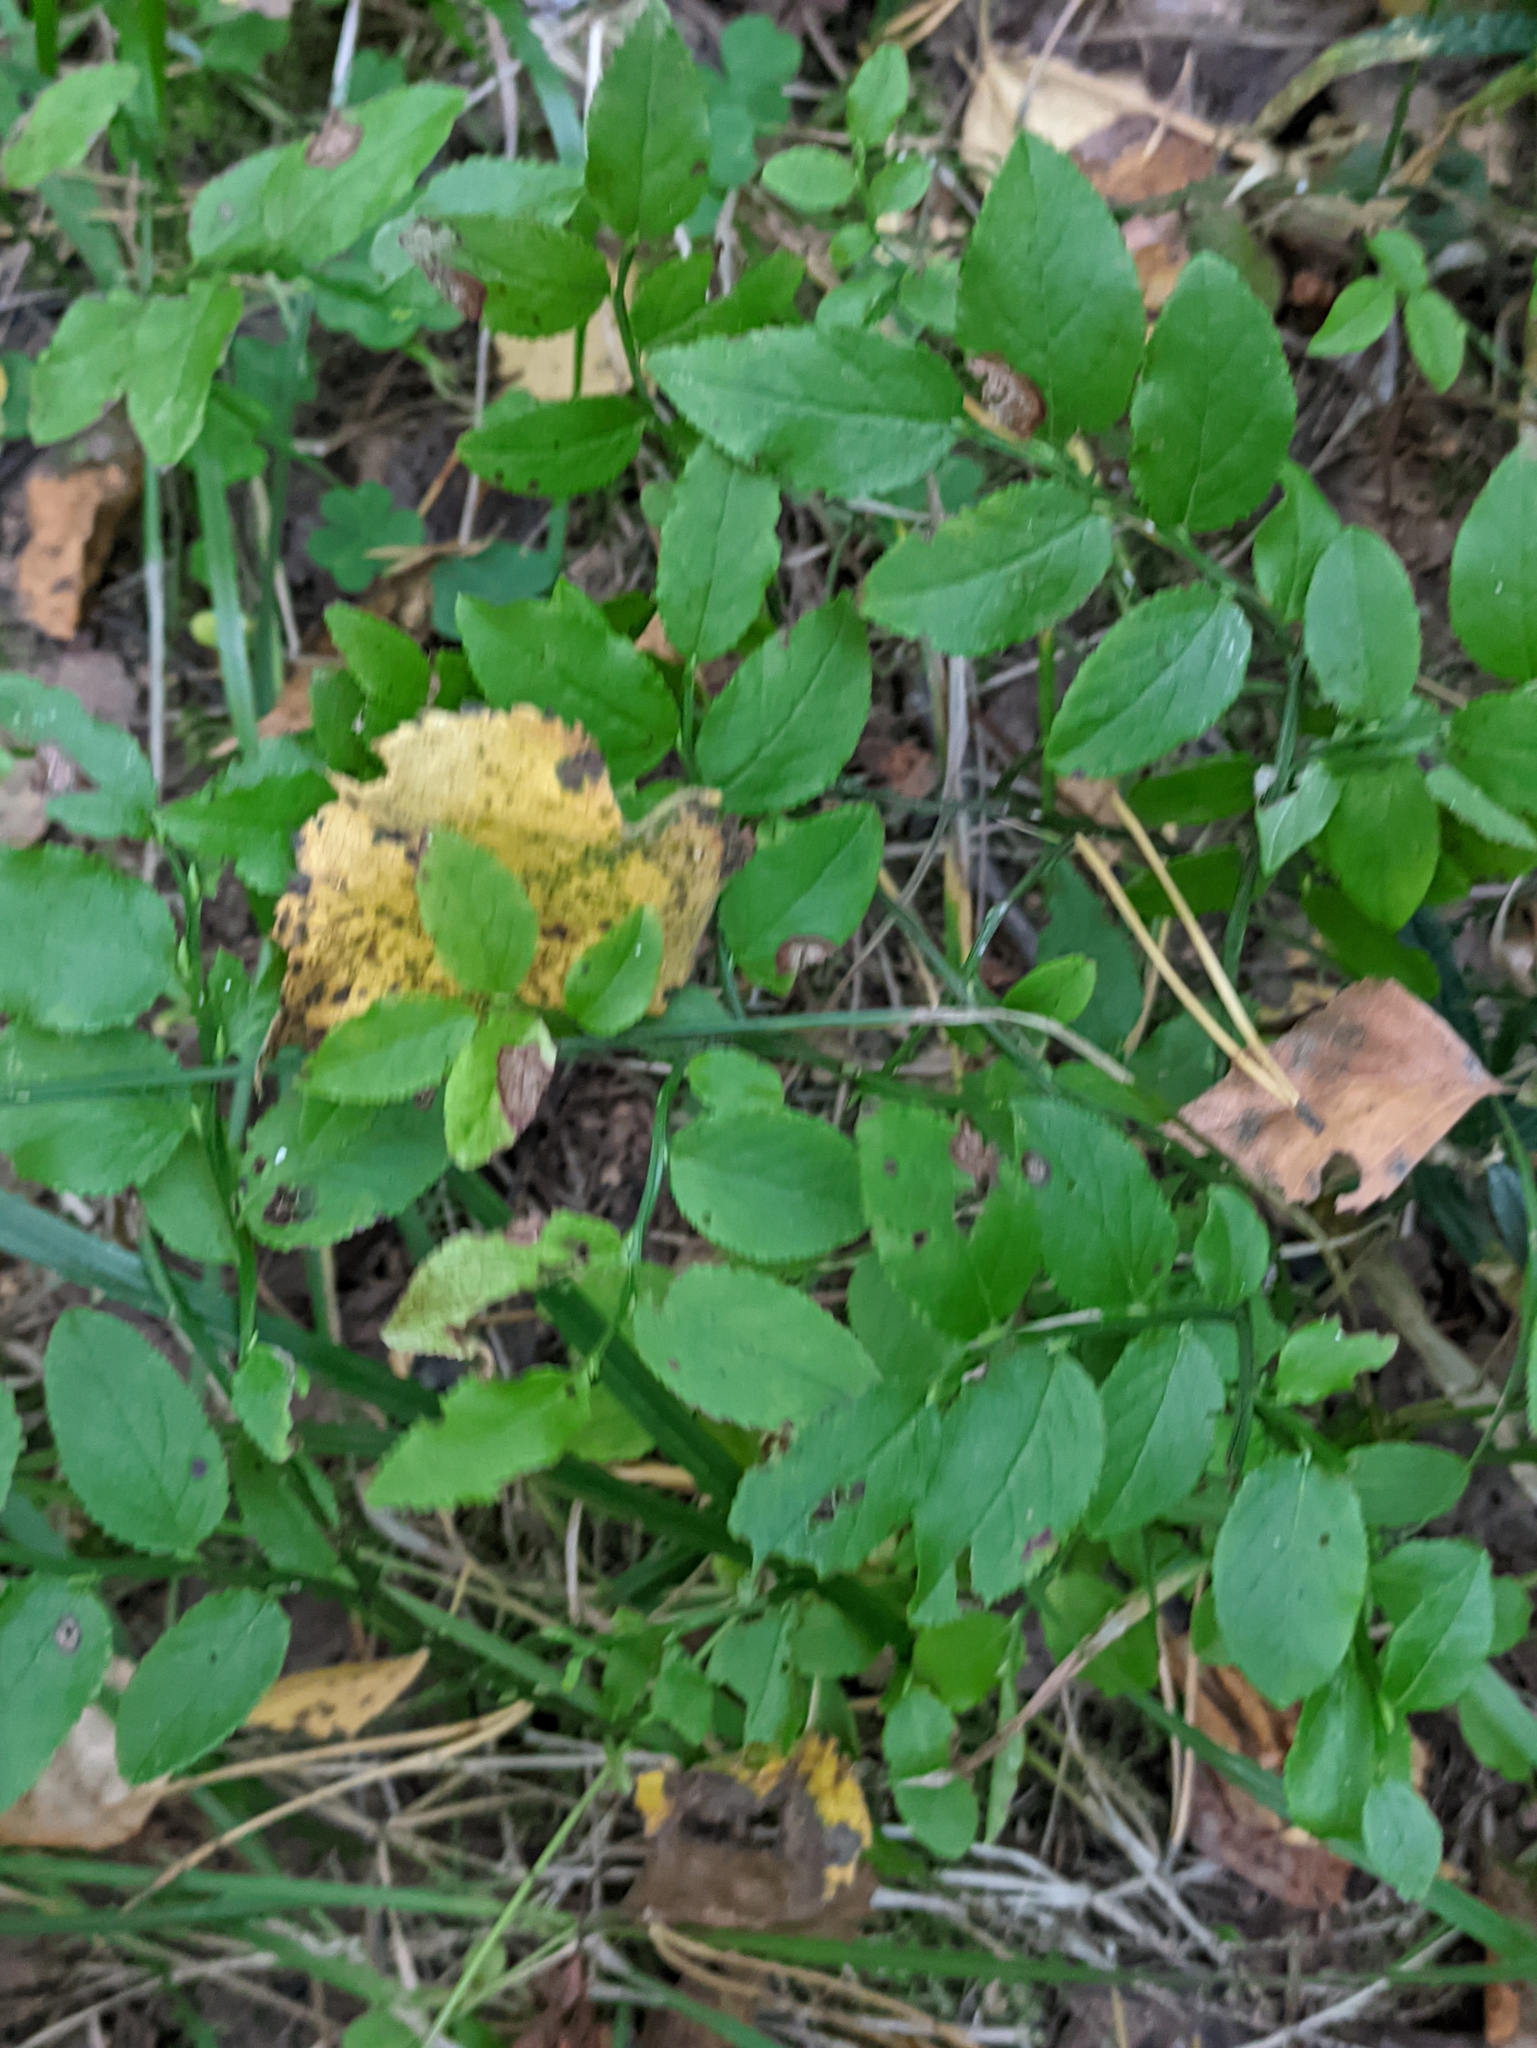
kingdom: Plantae
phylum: Tracheophyta
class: Magnoliopsida
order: Ericales
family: Ericaceae
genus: Vaccinium
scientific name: Vaccinium myrtillus
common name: Bilberry
